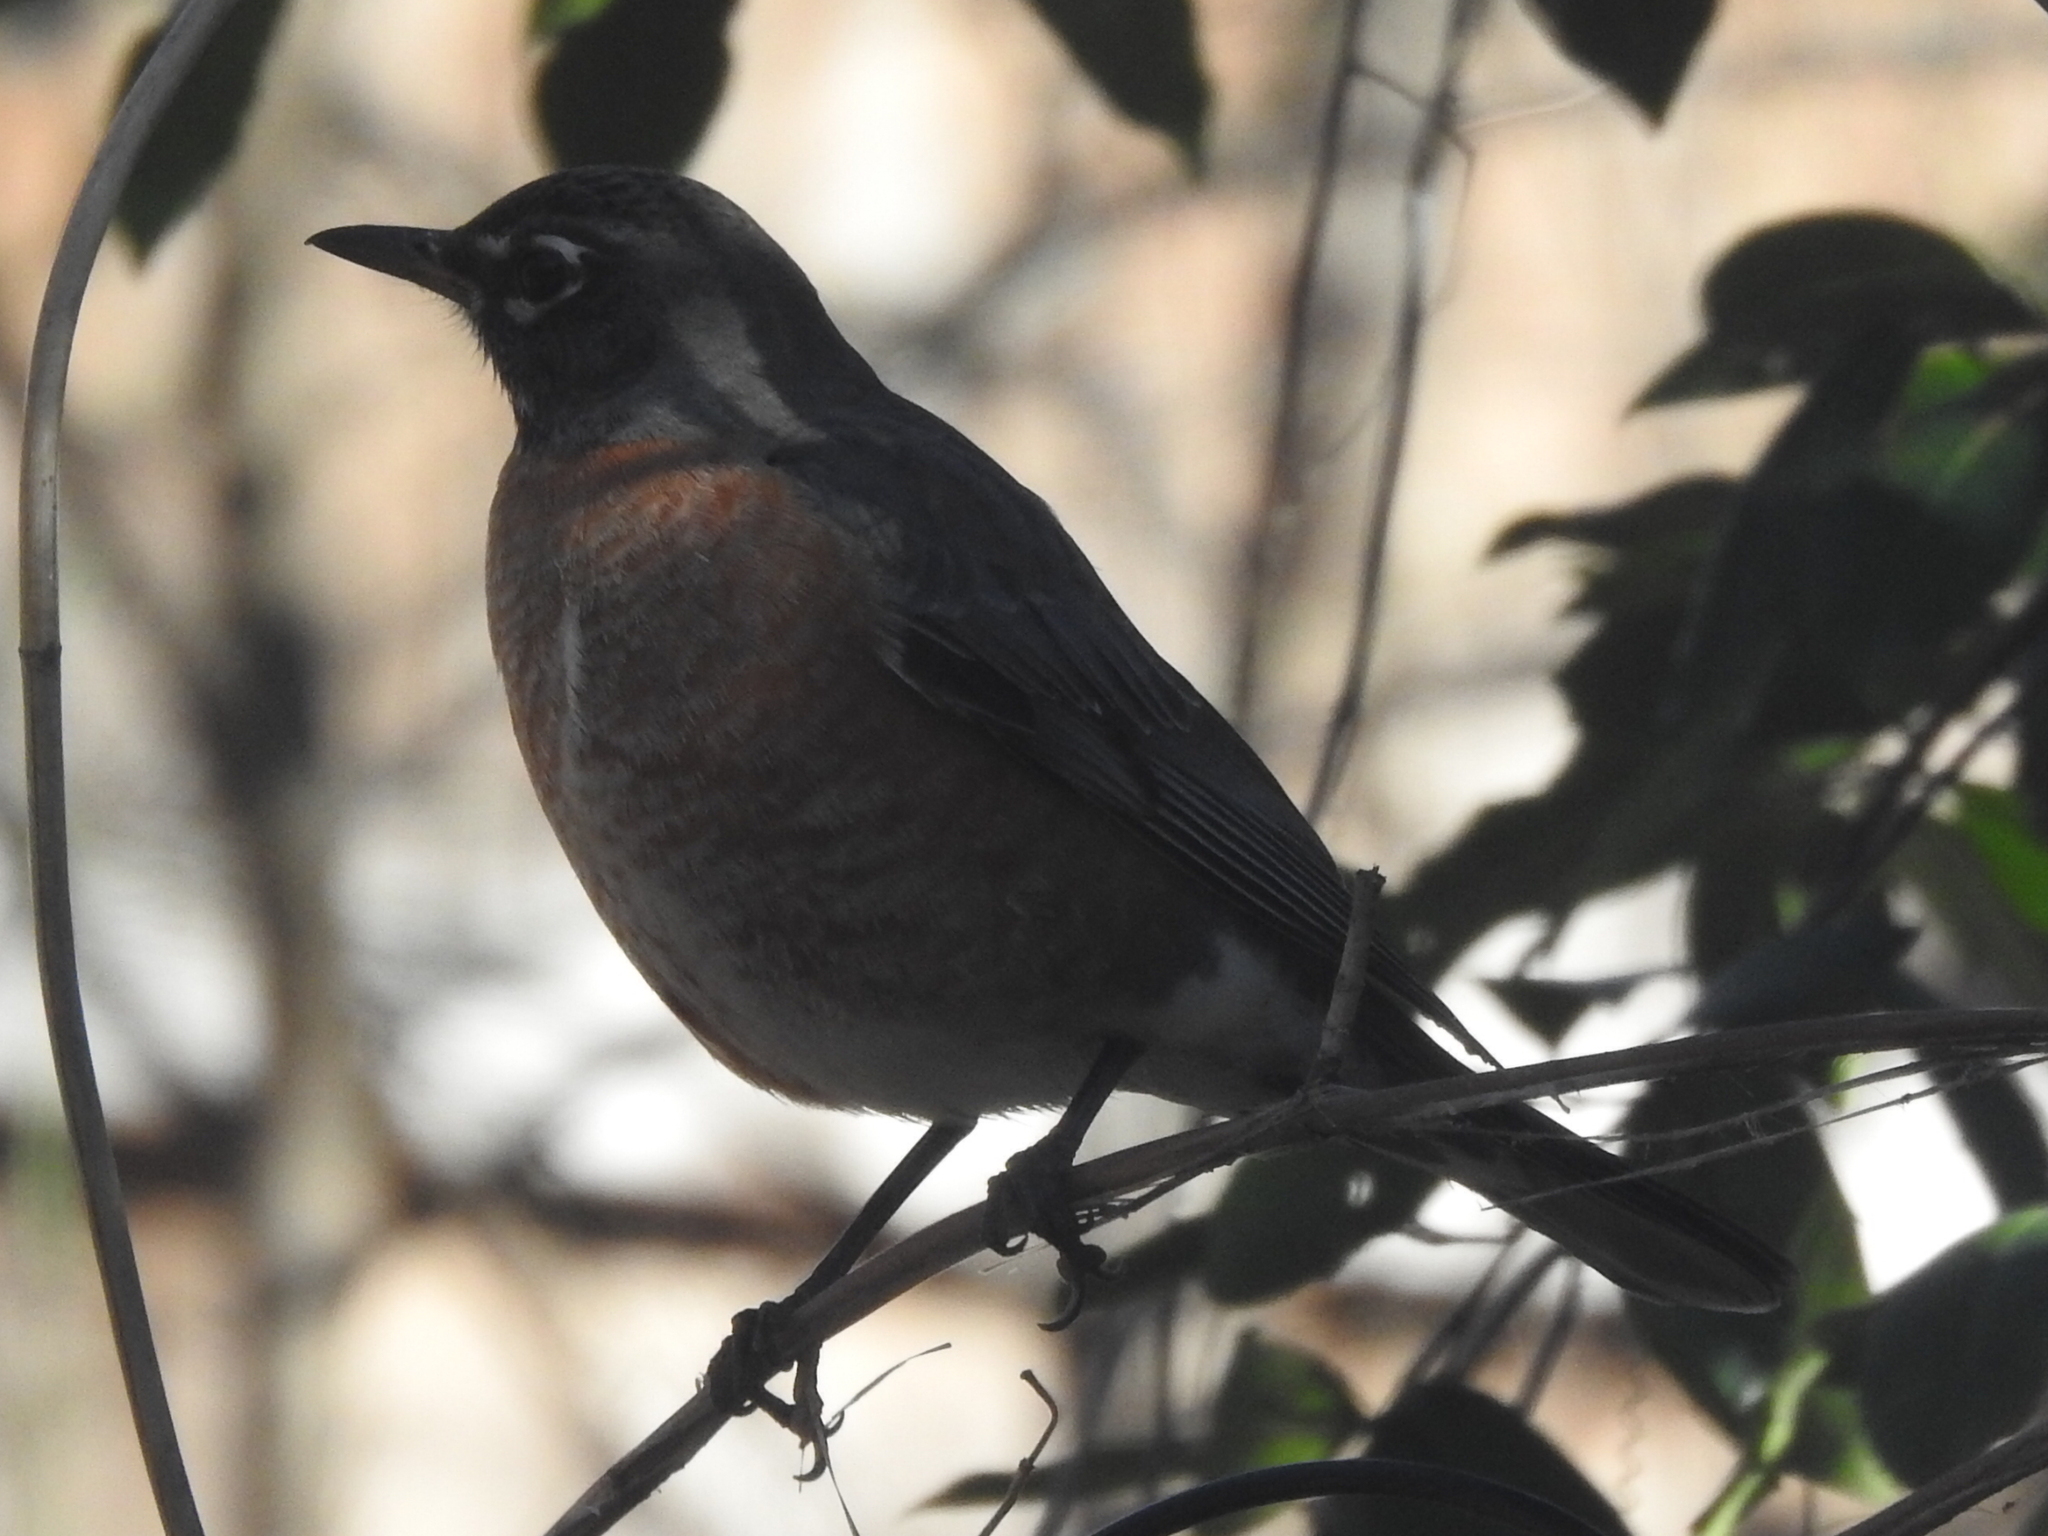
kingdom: Animalia
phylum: Chordata
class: Aves
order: Passeriformes
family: Turdidae
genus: Turdus
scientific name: Turdus migratorius
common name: American robin
